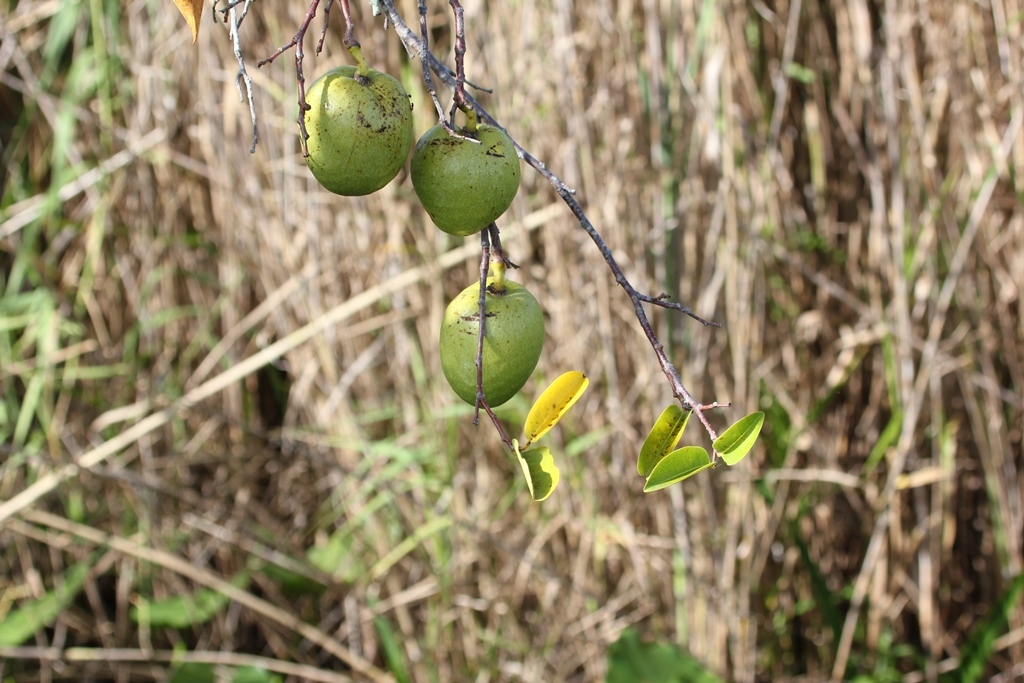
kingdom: Plantae
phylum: Tracheophyta
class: Magnoliopsida
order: Magnoliales
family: Annonaceae
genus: Annona
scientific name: Annona glabra
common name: Monkey apple
